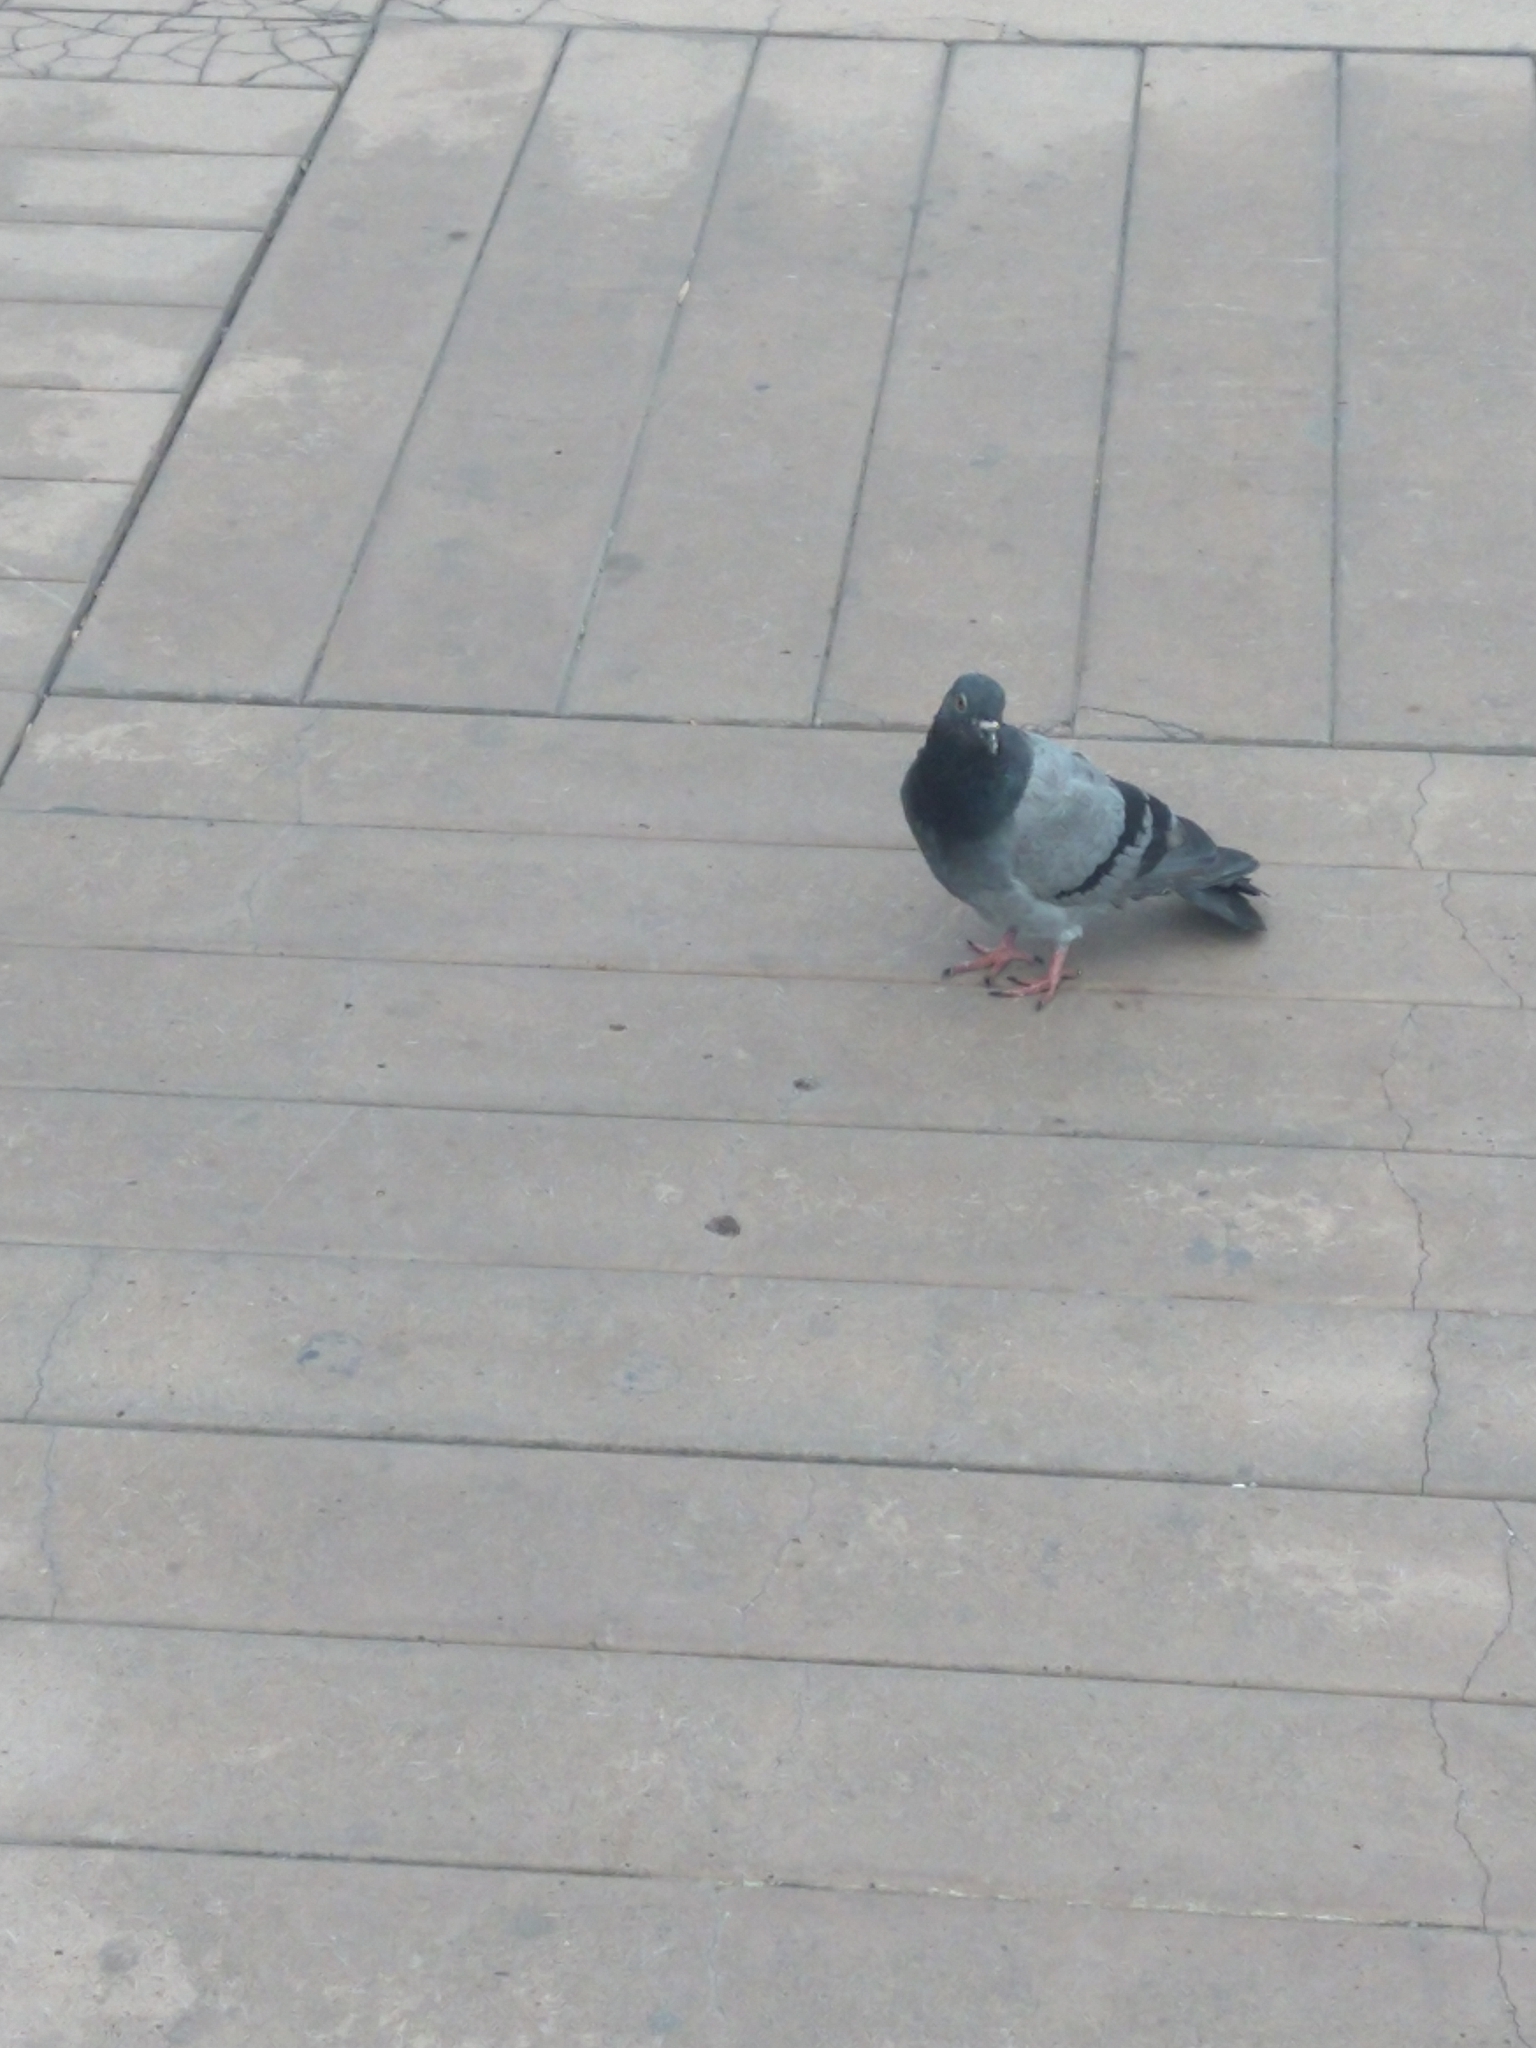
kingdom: Animalia
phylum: Chordata
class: Aves
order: Columbiformes
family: Columbidae
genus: Columba
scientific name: Columba livia
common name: Rock pigeon
